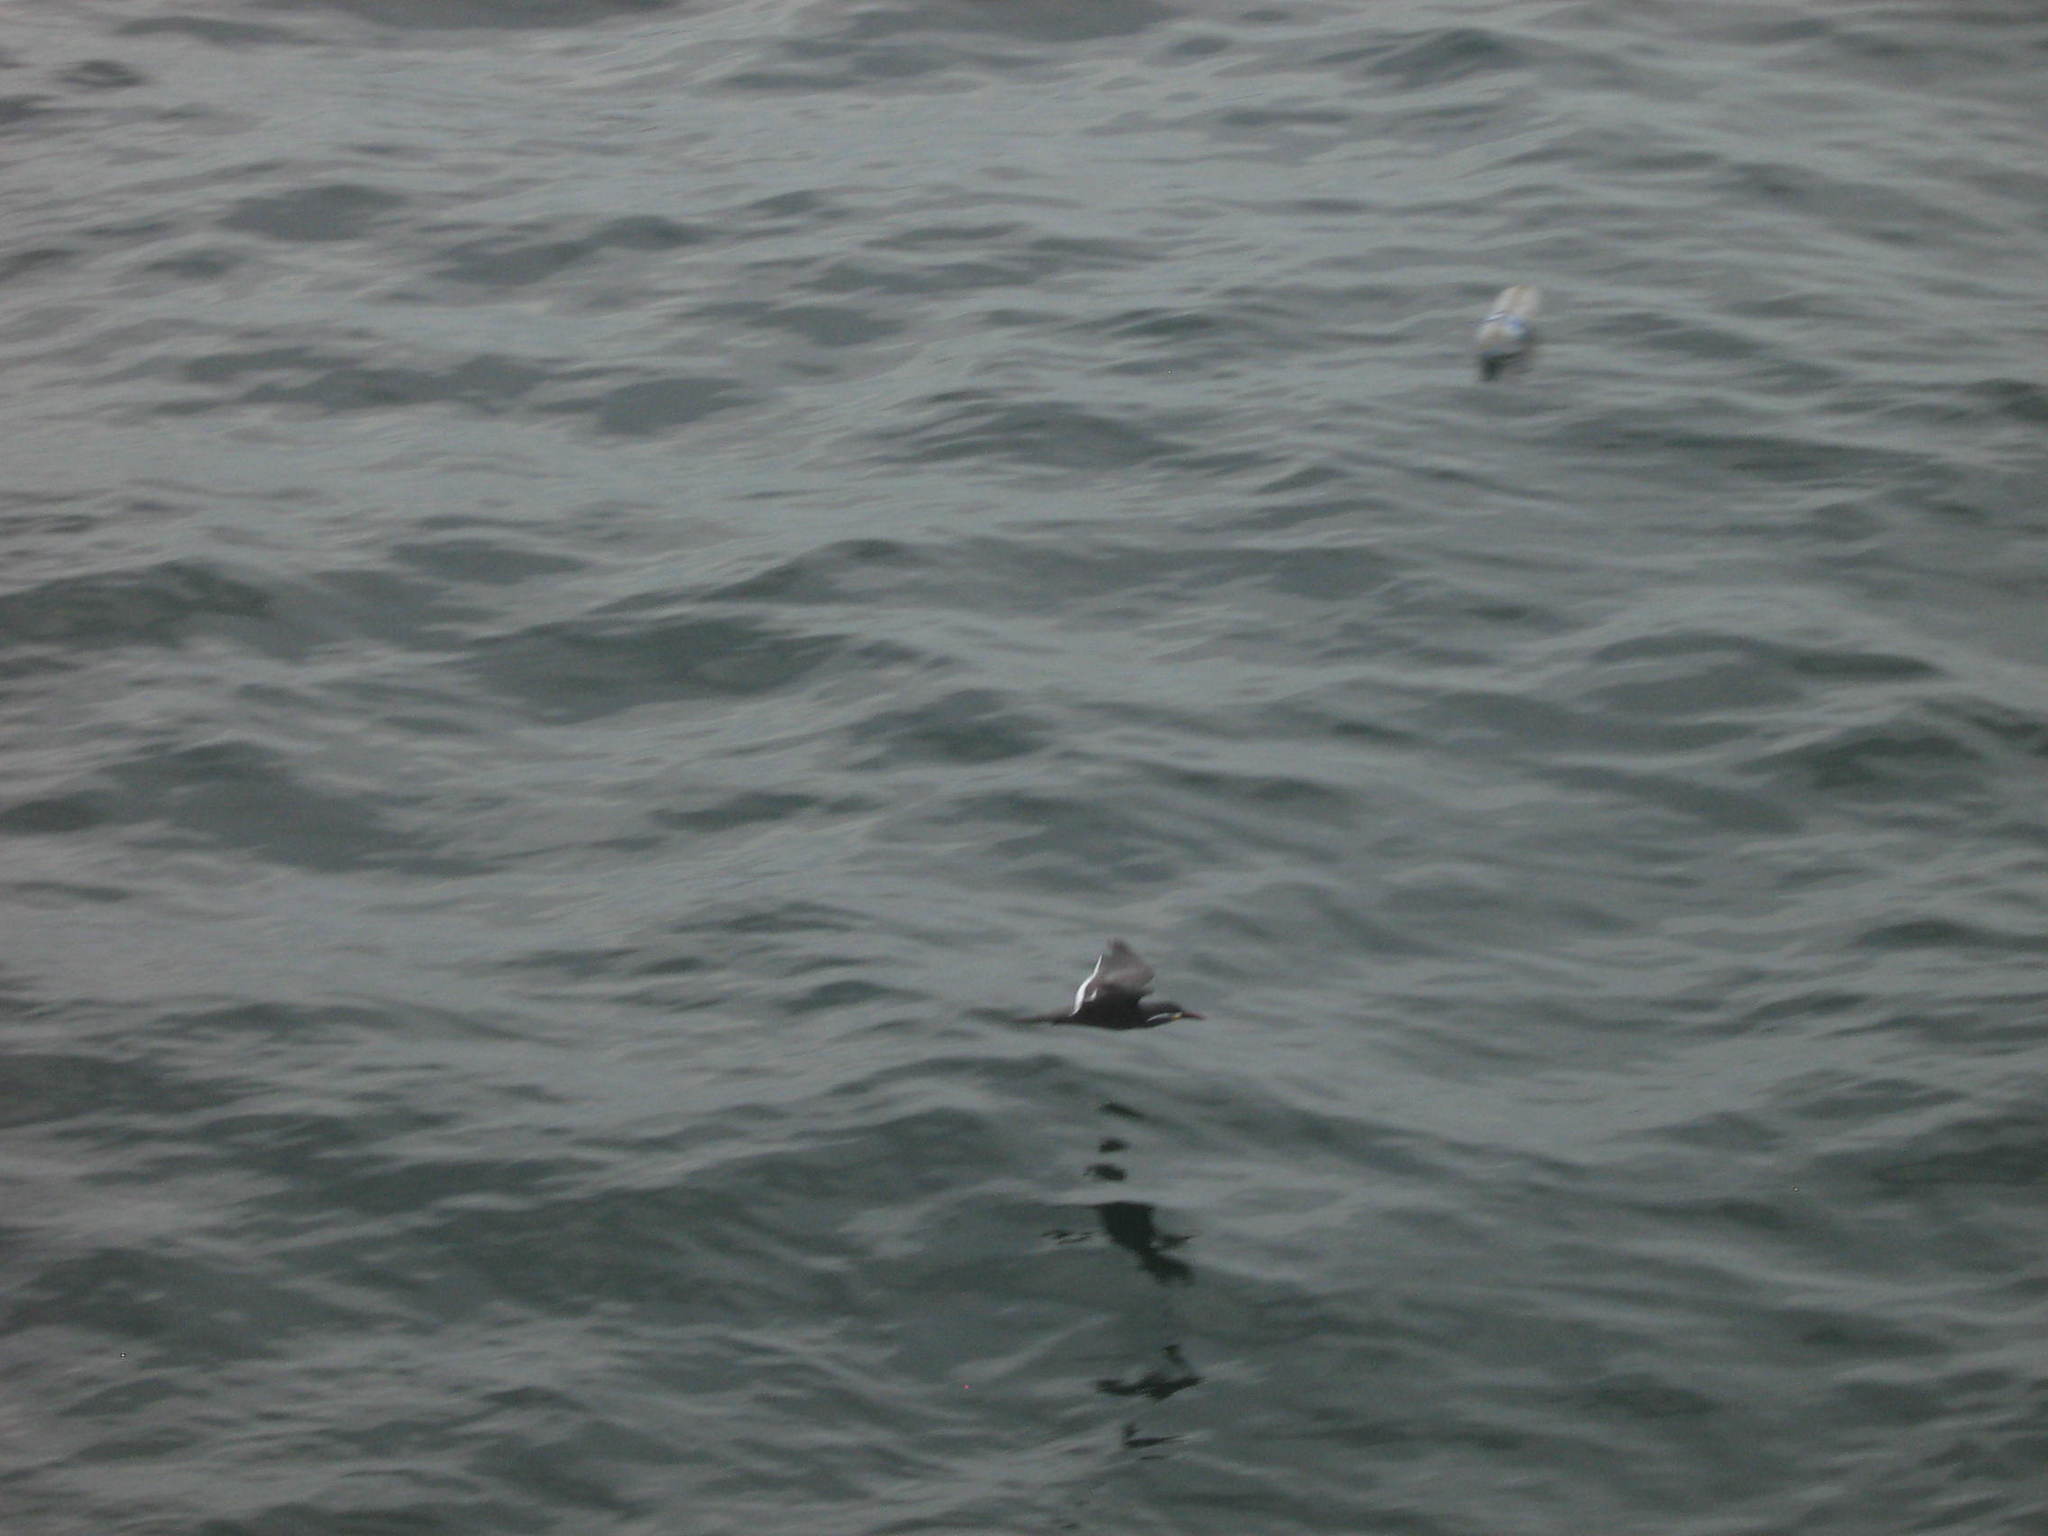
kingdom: Animalia
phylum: Chordata
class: Aves
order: Charadriiformes
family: Laridae
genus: Larosterna
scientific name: Larosterna inca
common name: Inca tern
